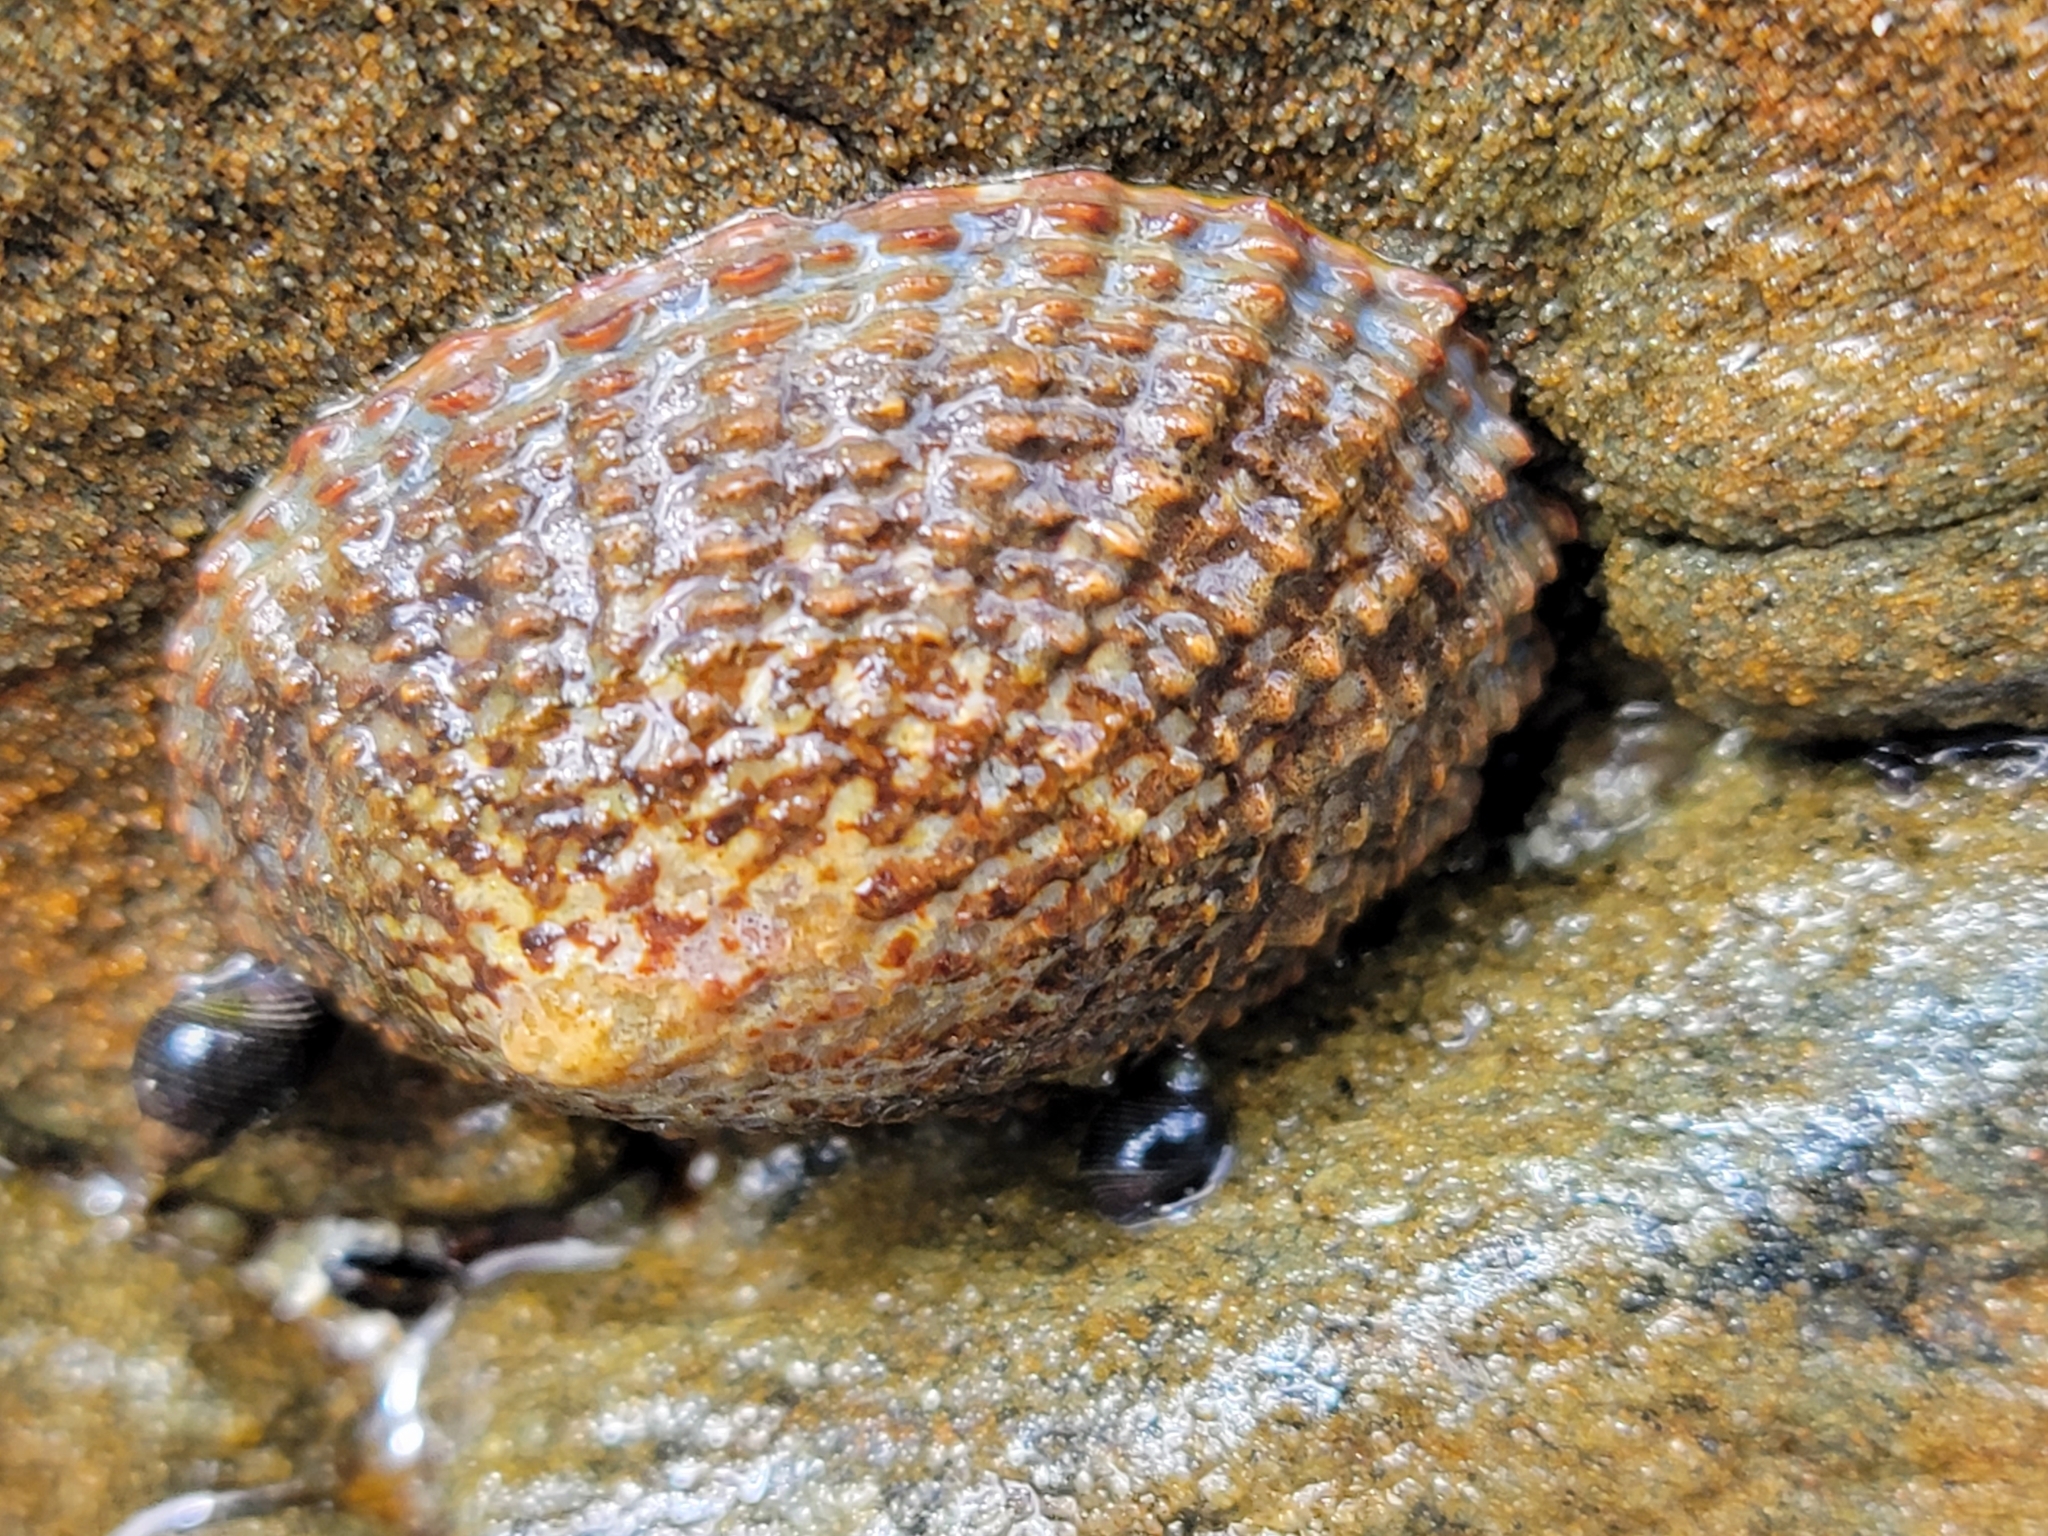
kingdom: Animalia
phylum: Mollusca
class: Gastropoda
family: Nacellidae
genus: Cellana
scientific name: Cellana denticulata
